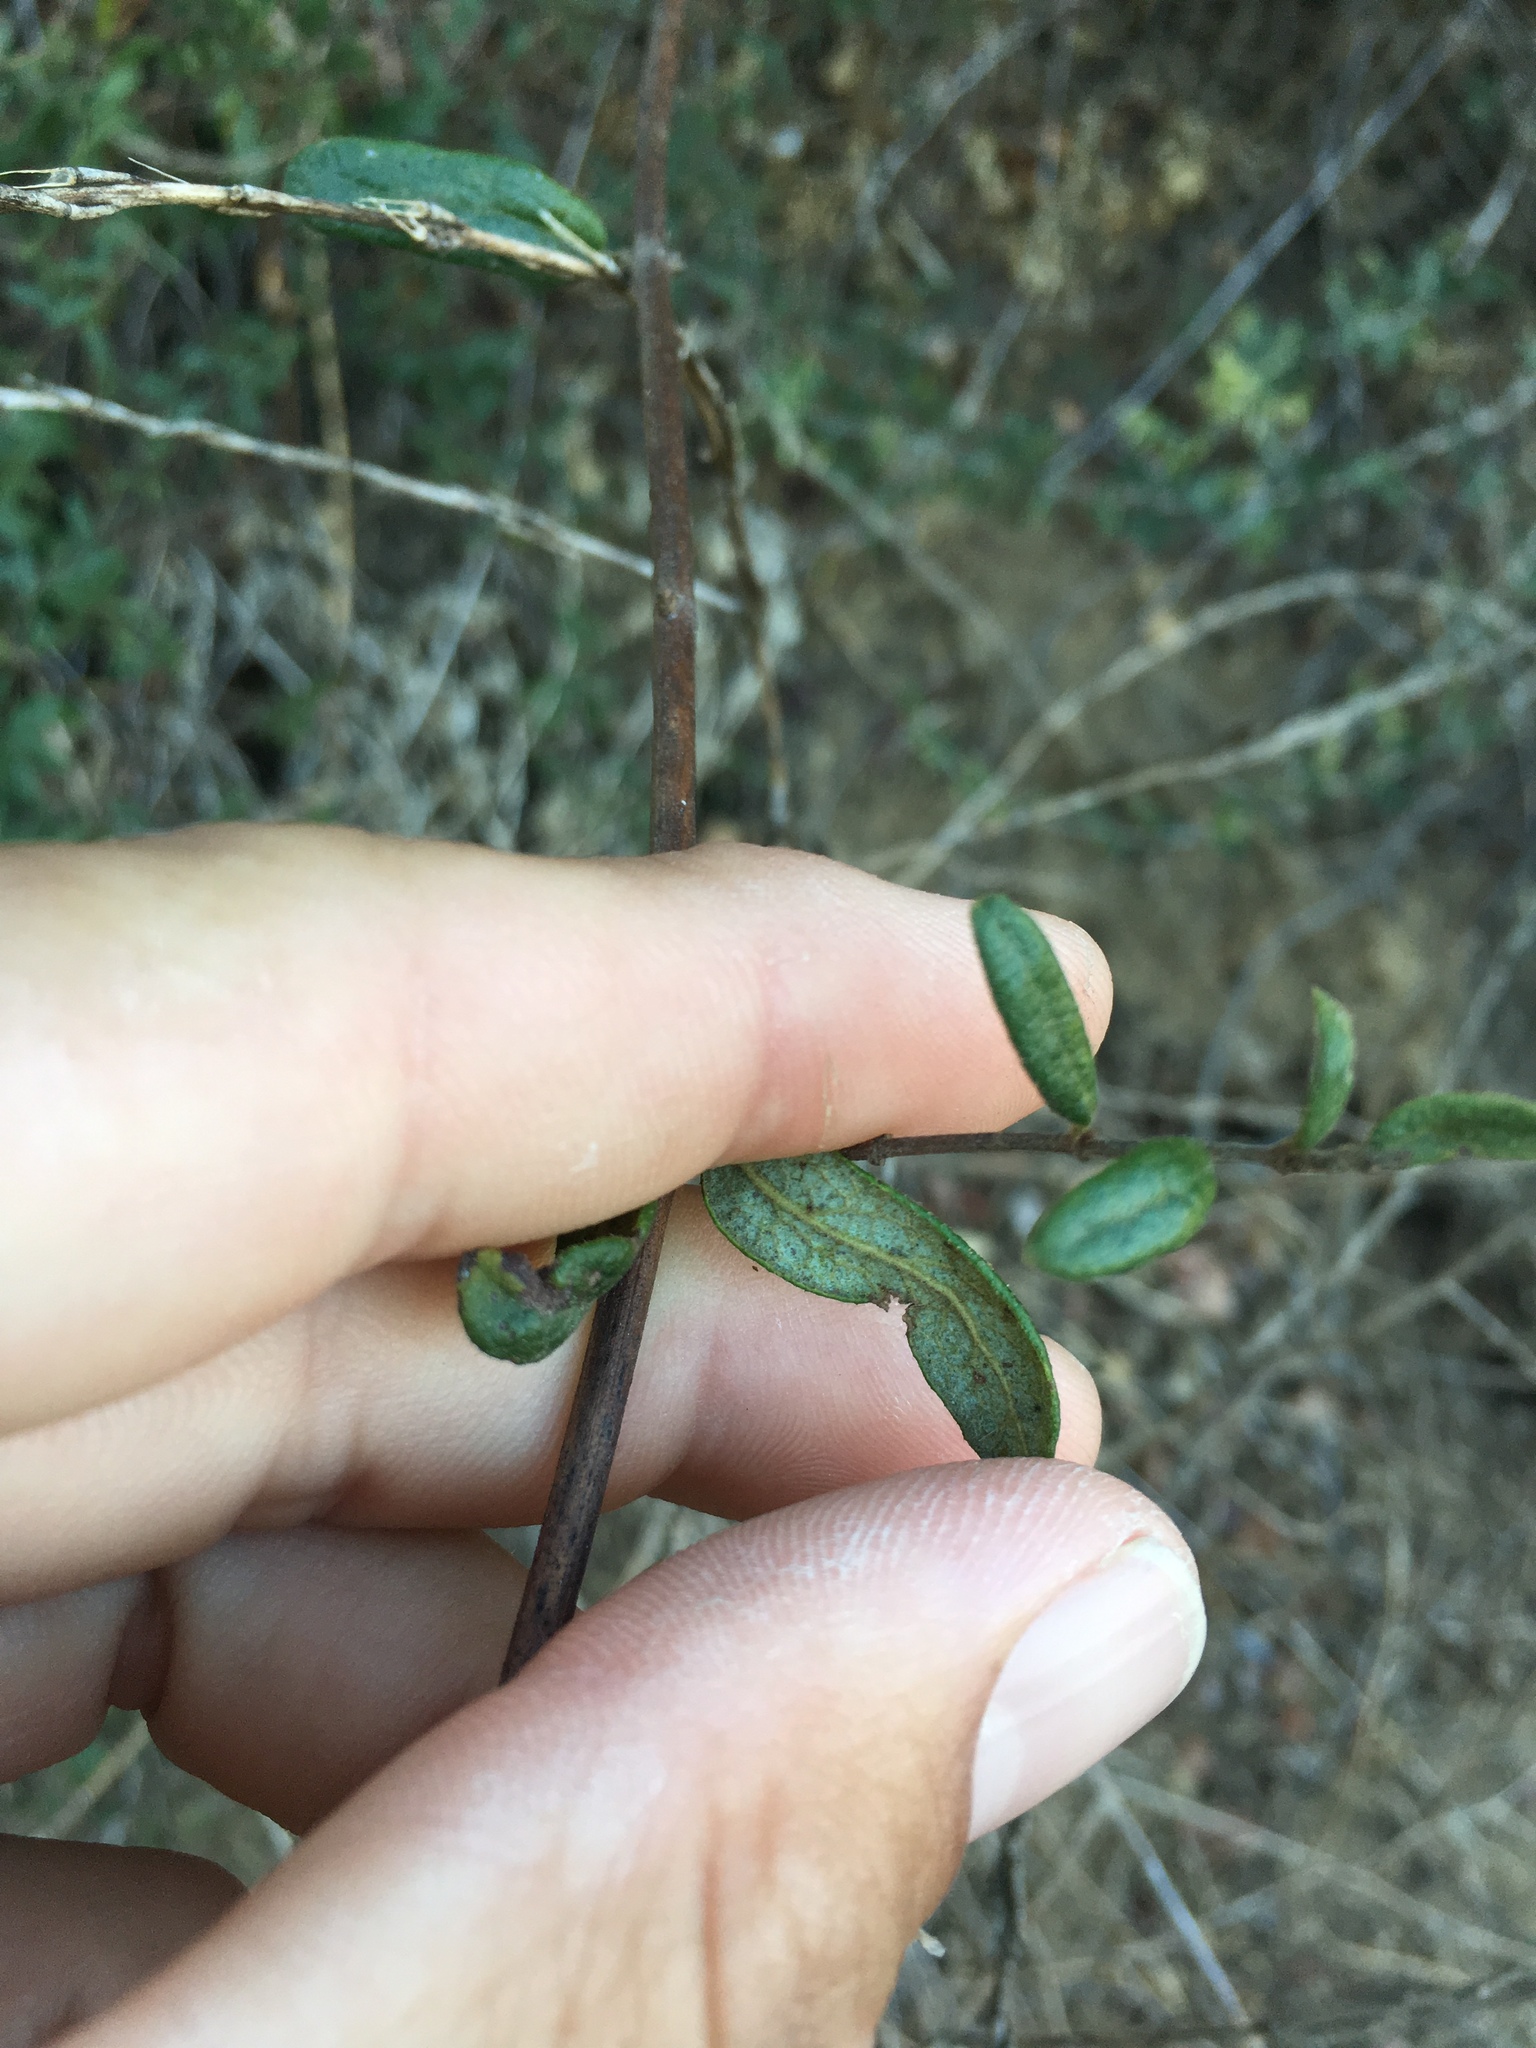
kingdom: Plantae
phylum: Tracheophyta
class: Magnoliopsida
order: Dipsacales
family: Caprifoliaceae
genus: Lonicera
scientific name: Lonicera subspicata
